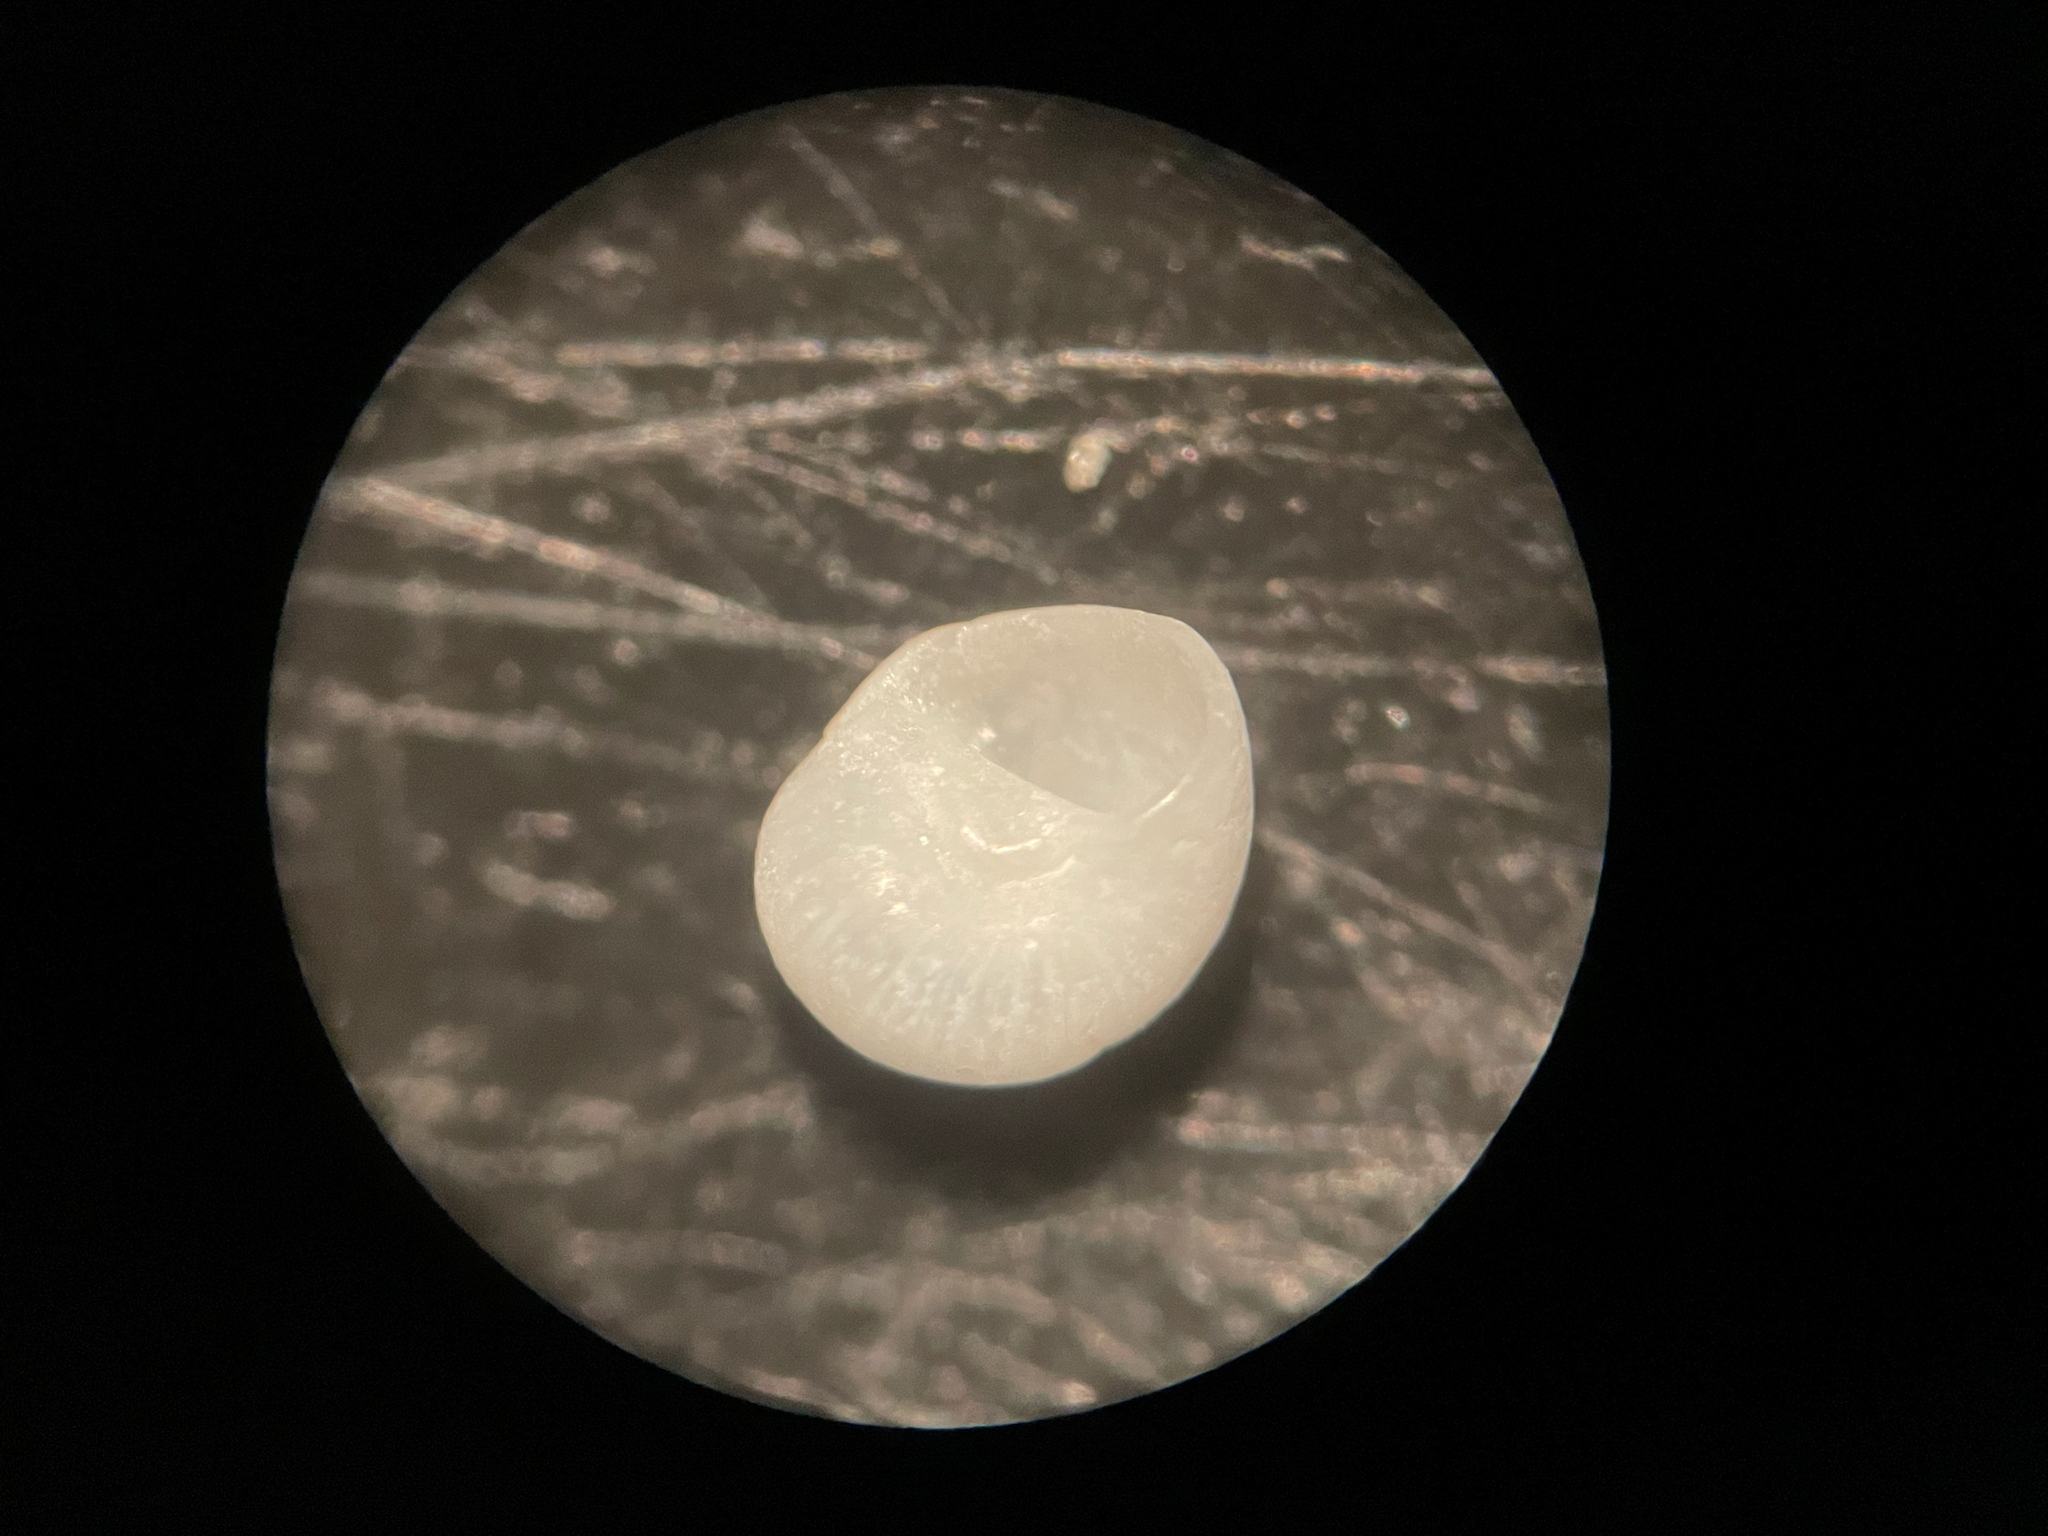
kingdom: Animalia
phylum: Mollusca
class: Gastropoda
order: Littorinimorpha
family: Naticidae
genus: Tectonatica
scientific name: Tectonatica pusilla
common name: Miniature moonsnail
